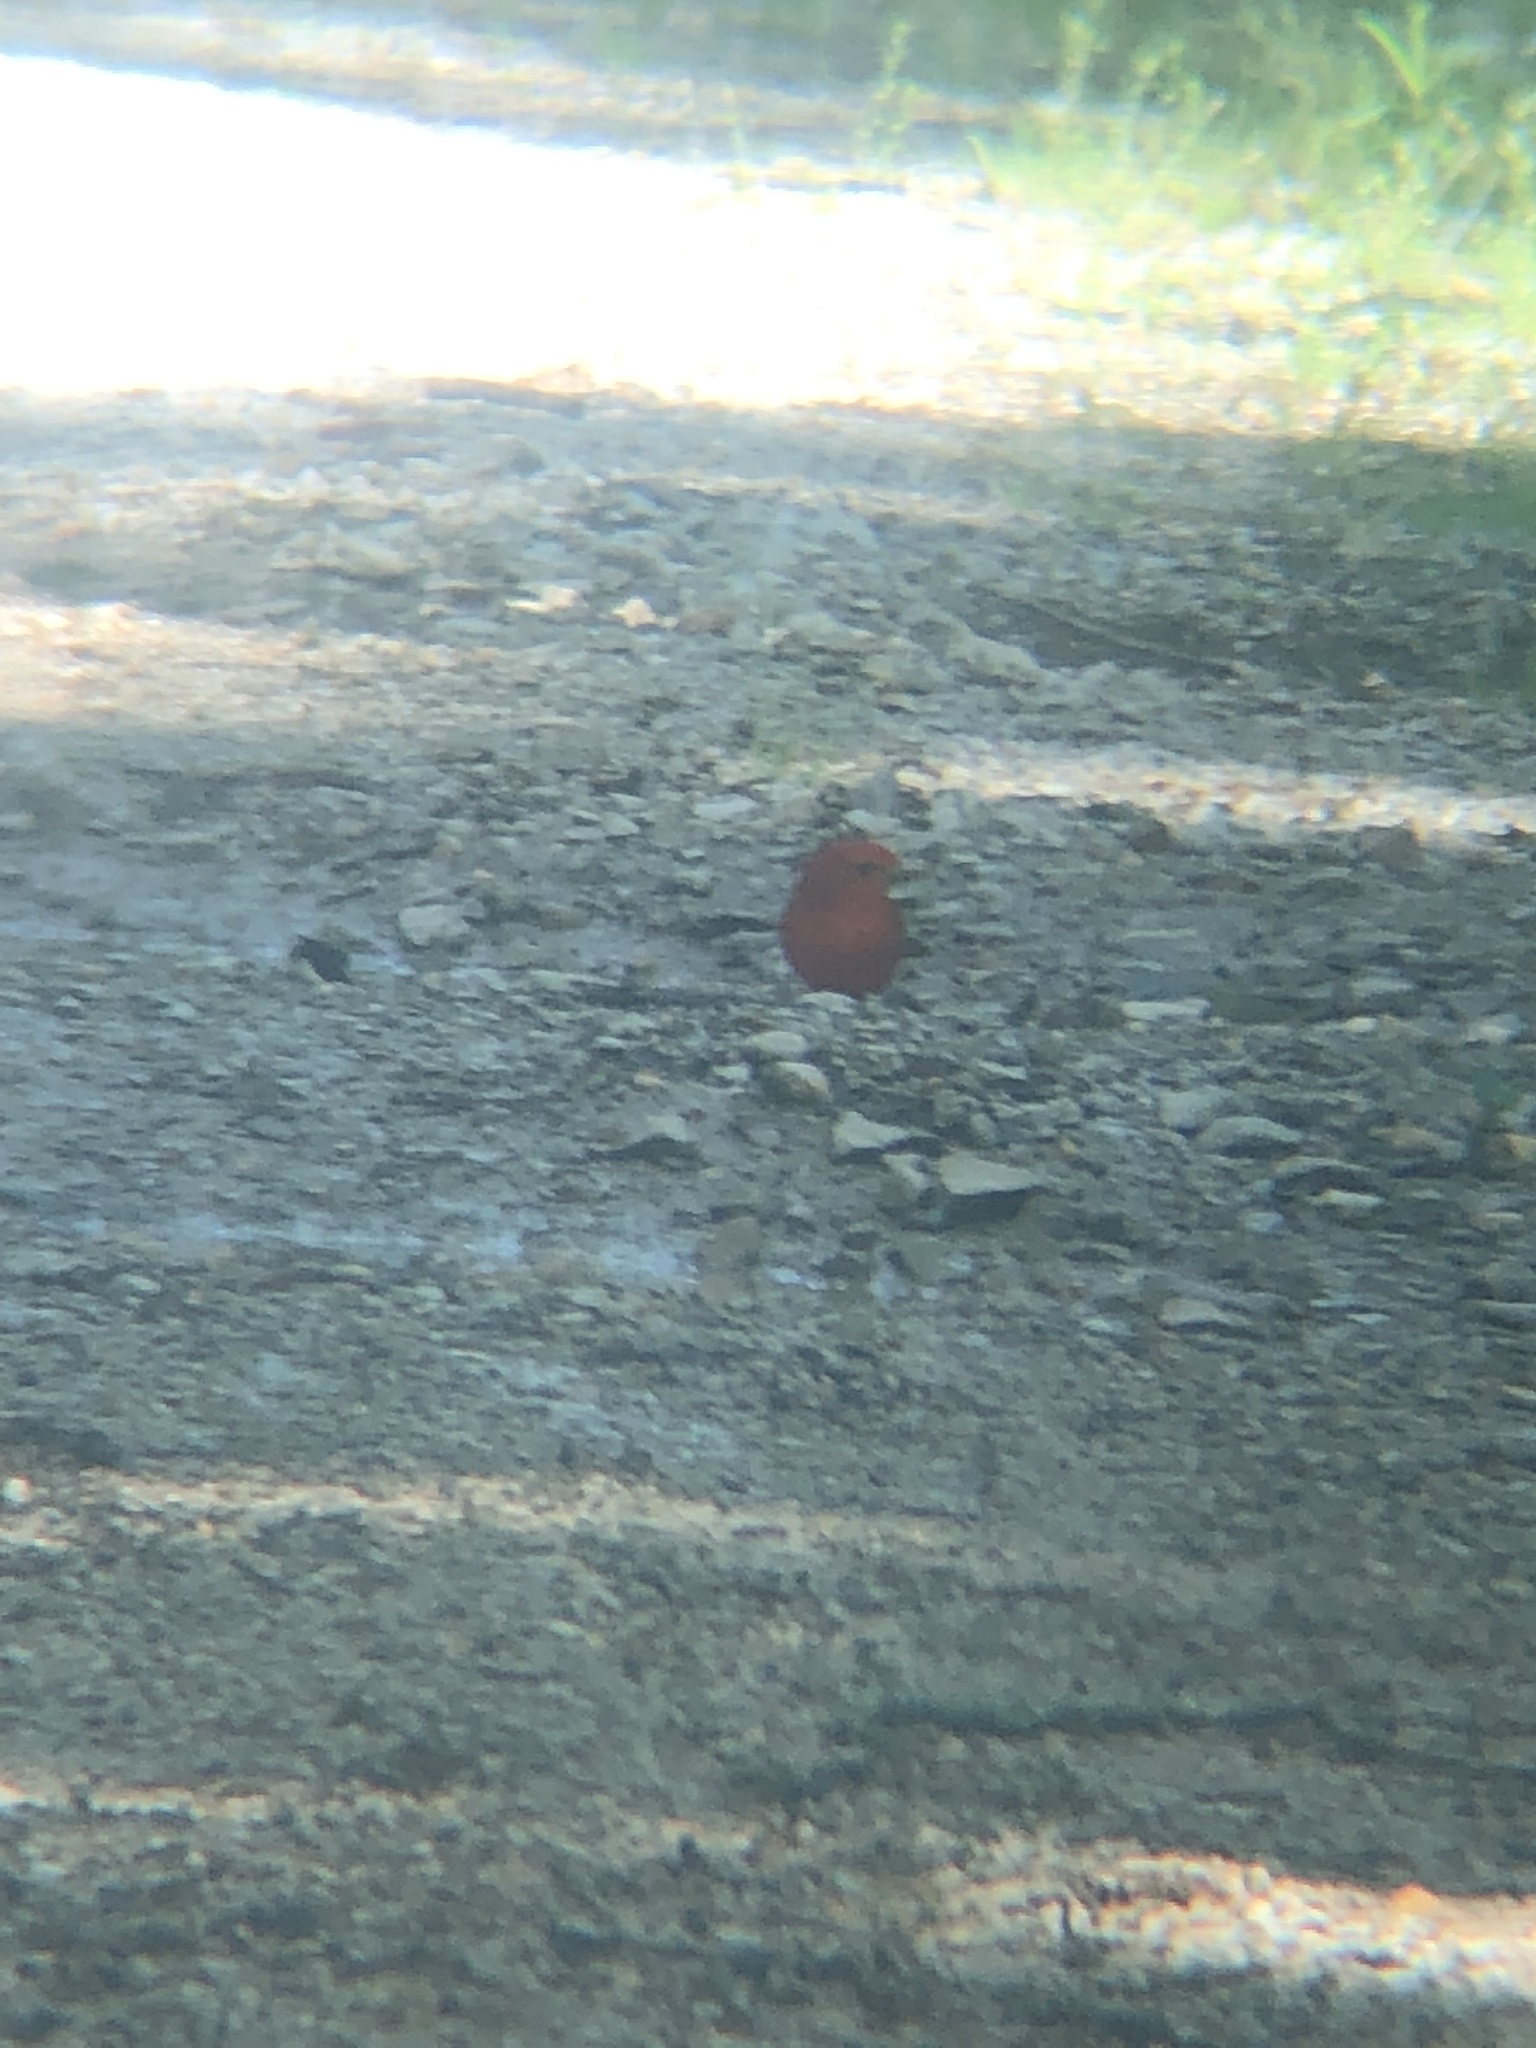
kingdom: Animalia
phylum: Chordata
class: Aves
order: Passeriformes
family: Cardinalidae
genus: Piranga
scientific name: Piranga rubra
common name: Summer tanager
